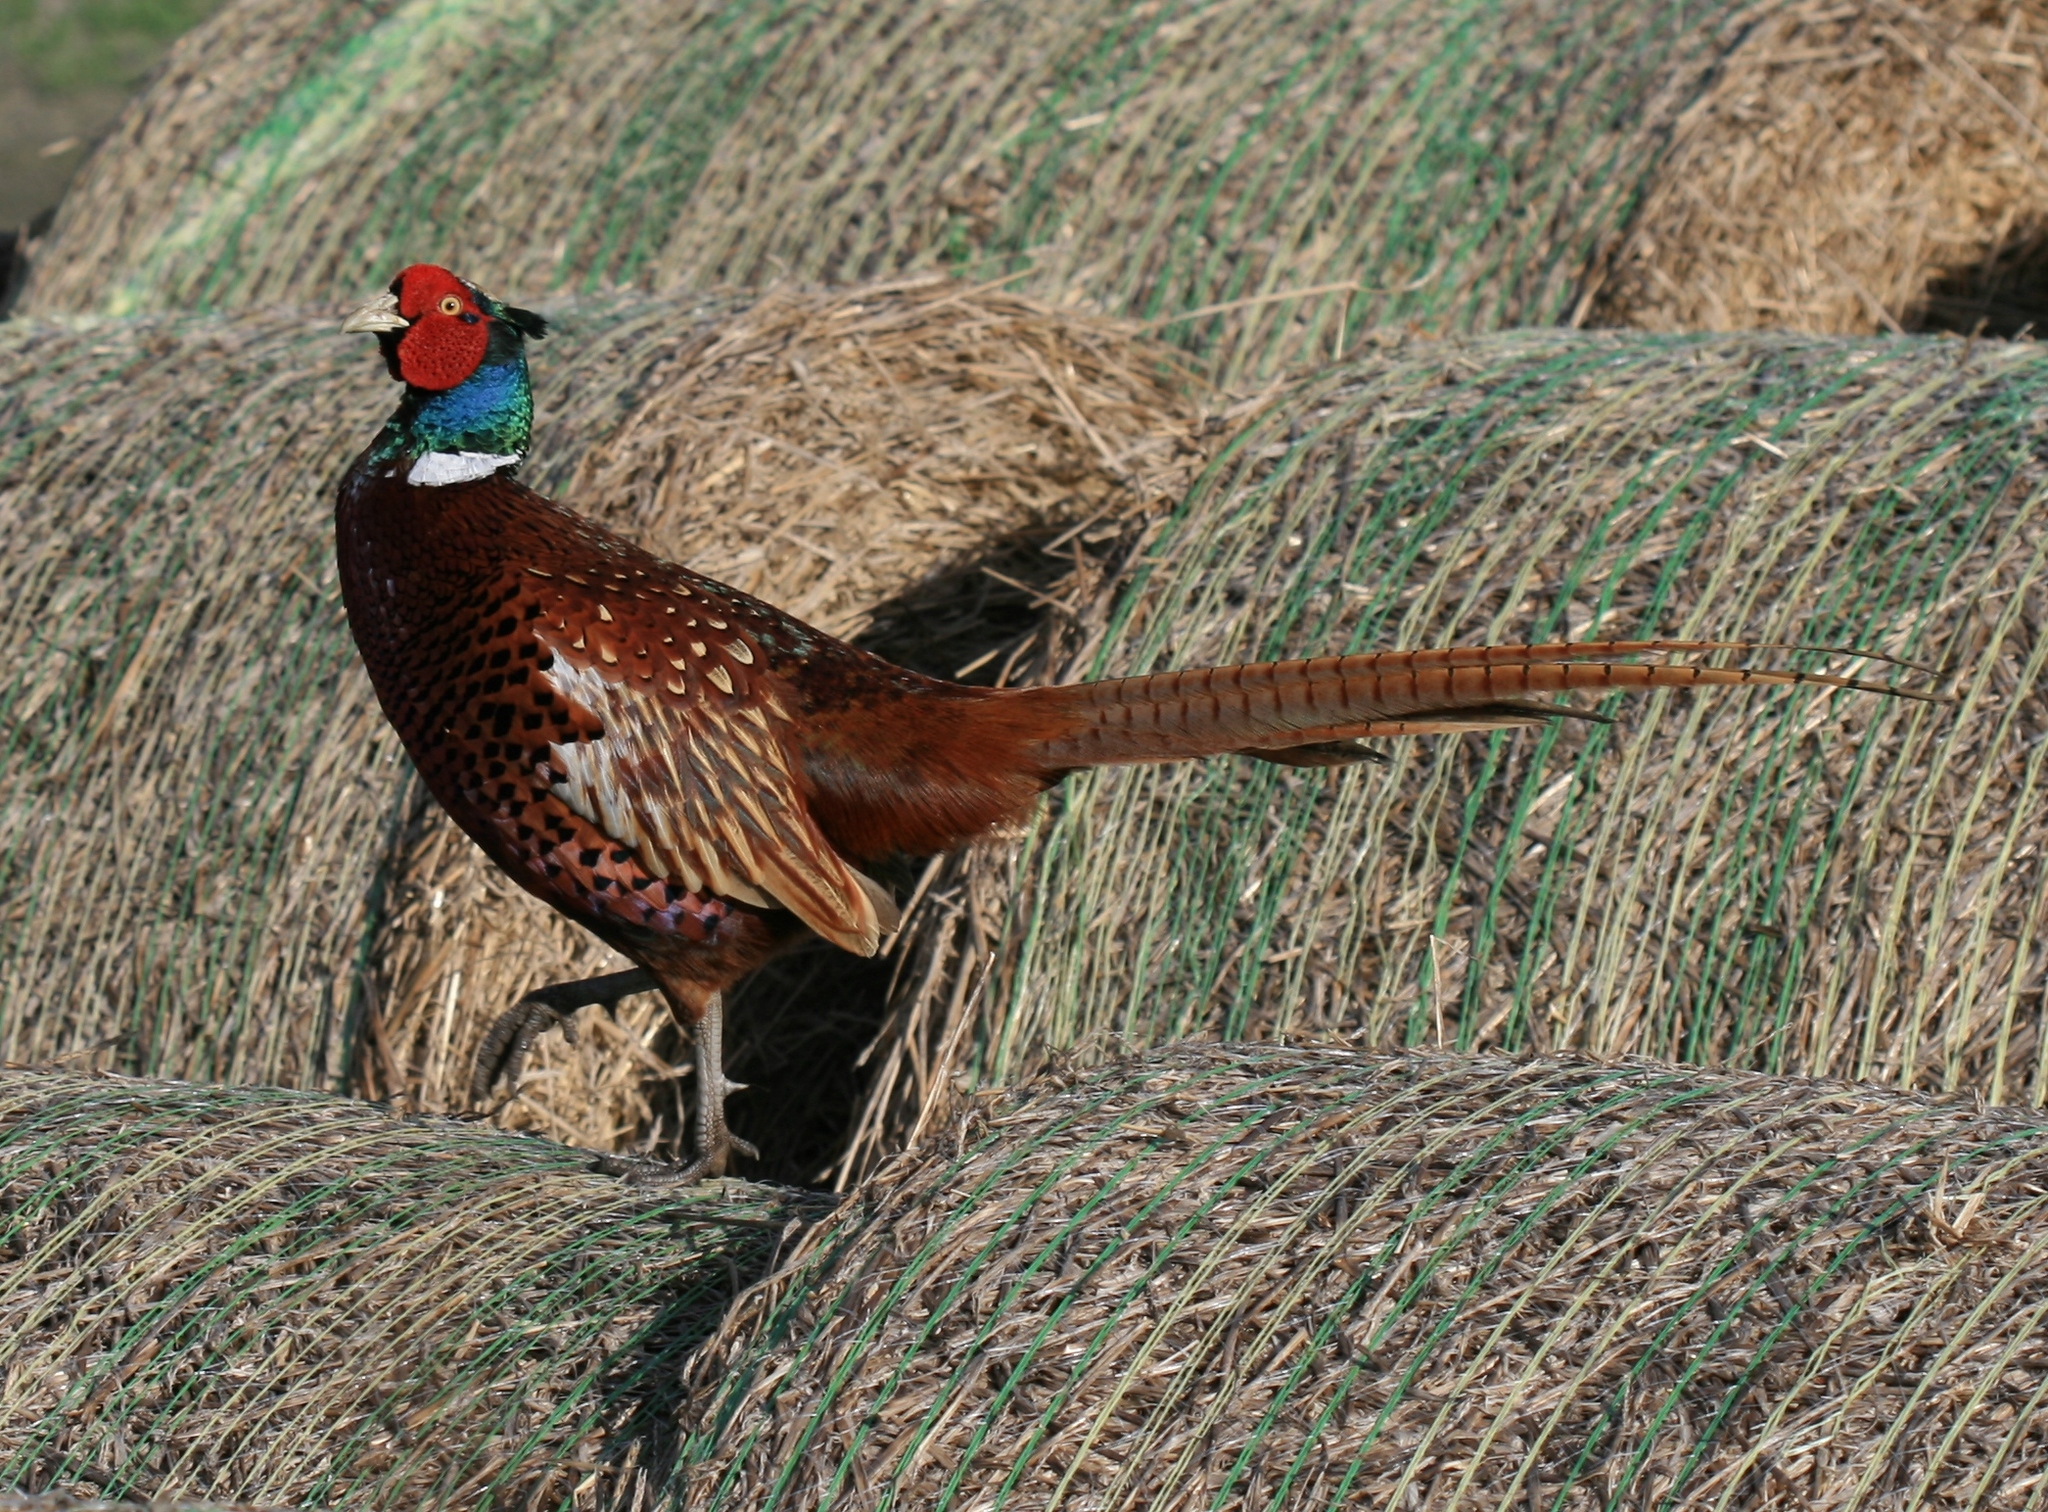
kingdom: Animalia
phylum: Chordata
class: Aves
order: Galliformes
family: Phasianidae
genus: Phasianus
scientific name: Phasianus colchicus
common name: Common pheasant
